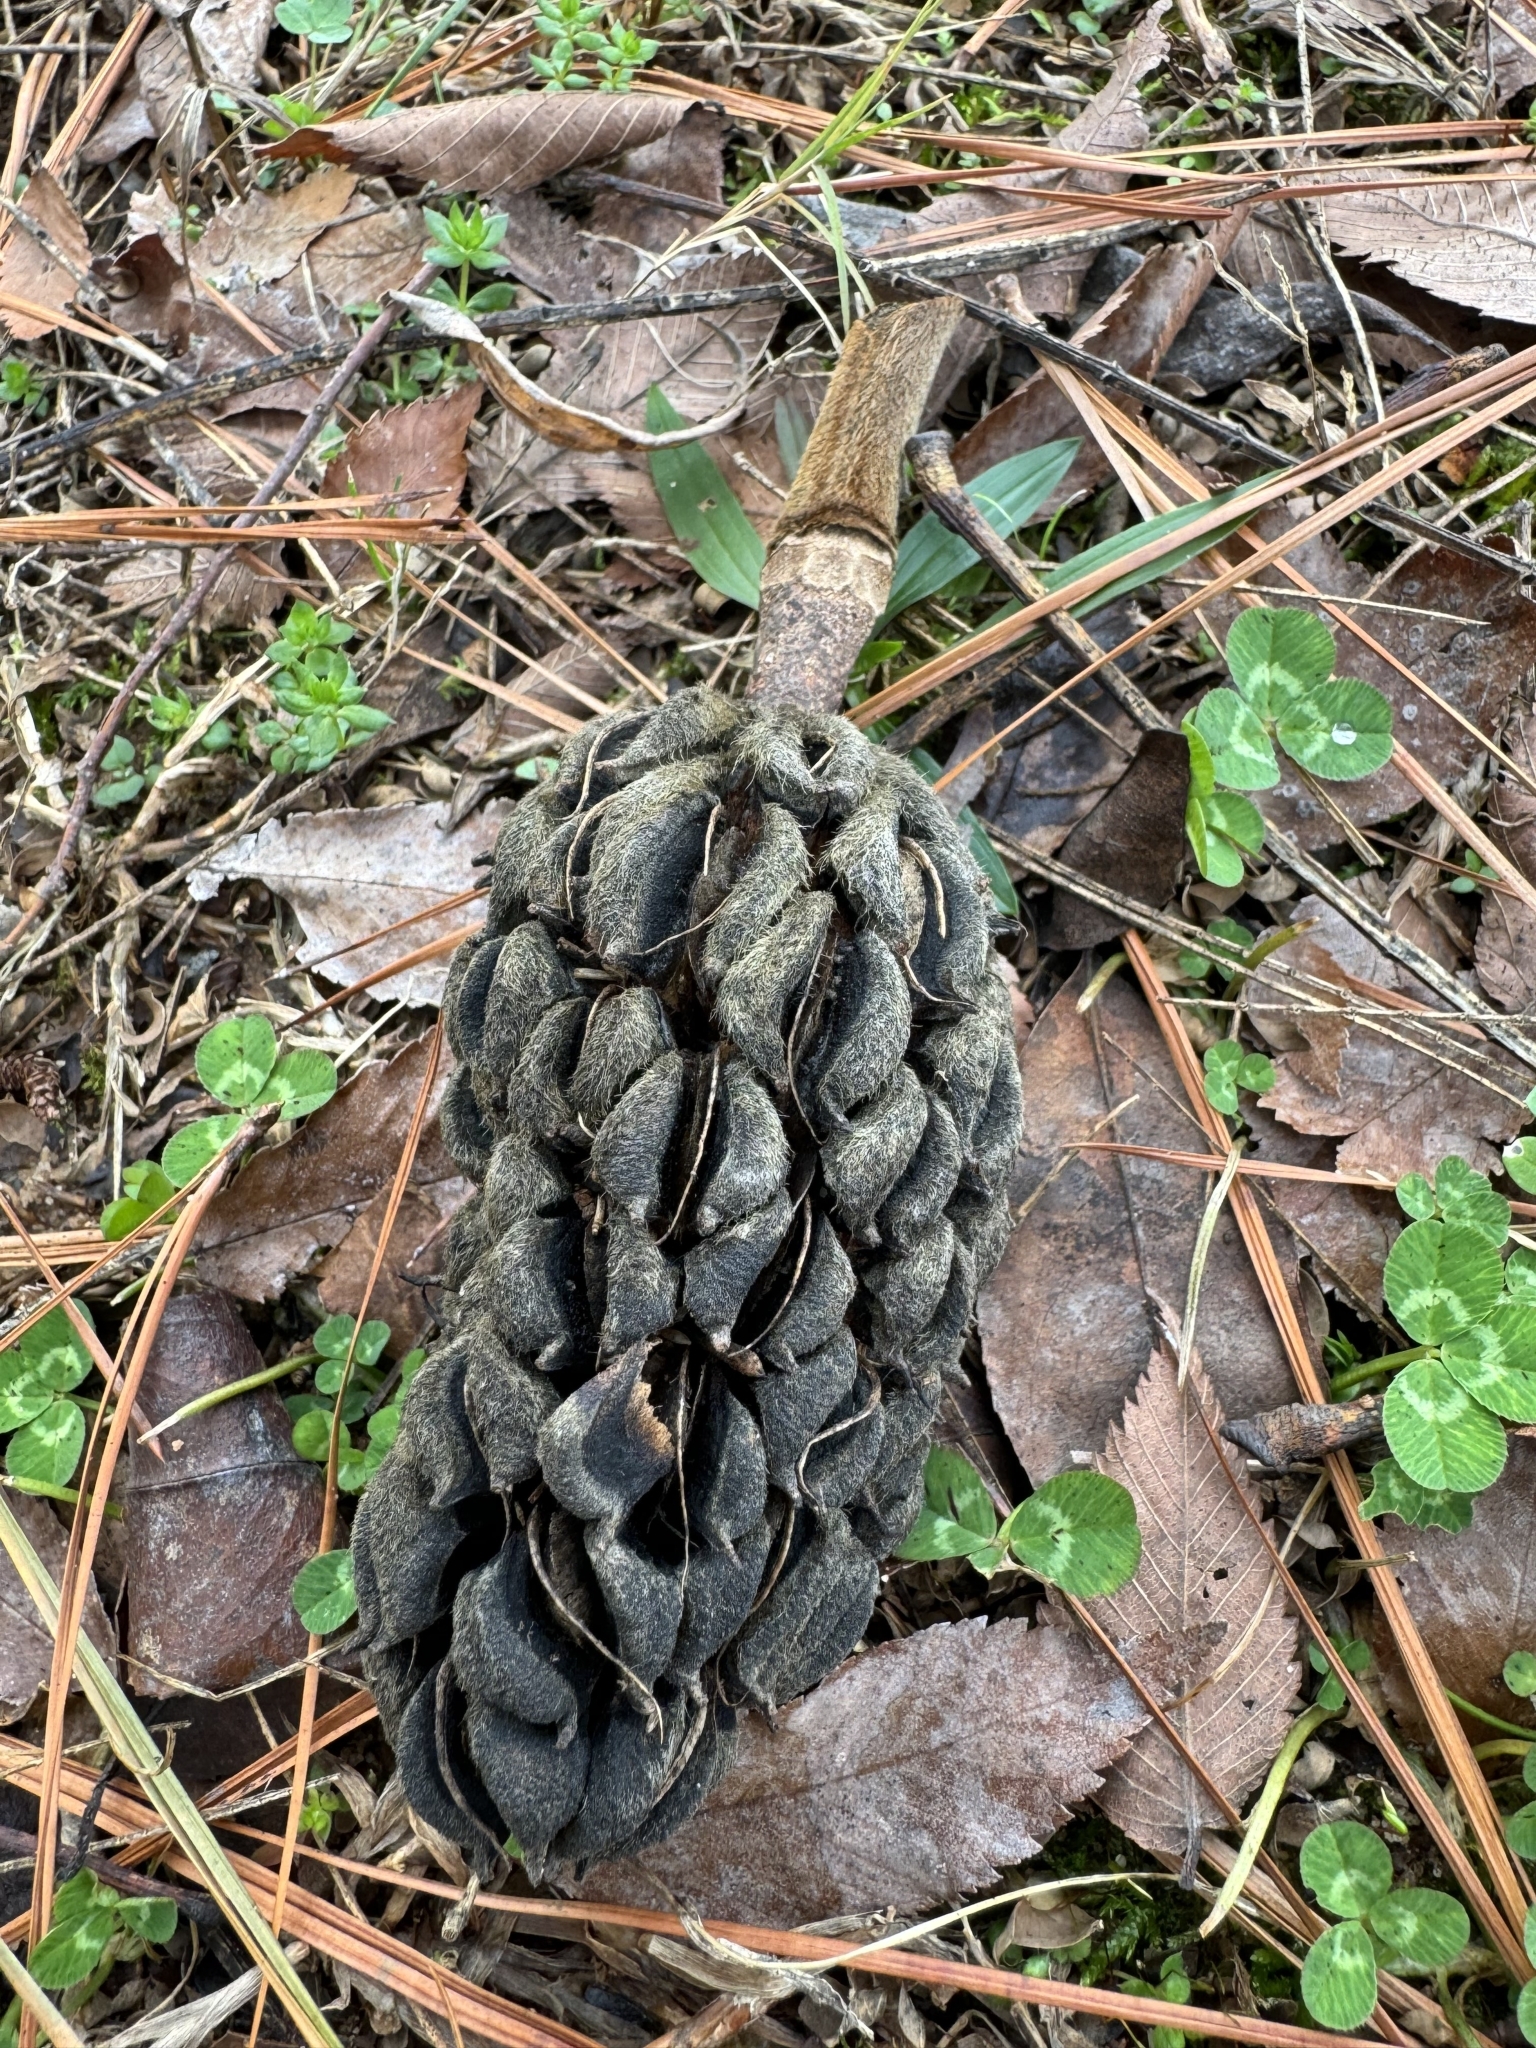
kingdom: Plantae
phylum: Tracheophyta
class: Magnoliopsida
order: Magnoliales
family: Magnoliaceae
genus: Magnolia
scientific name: Magnolia grandiflora
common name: Southern magnolia
